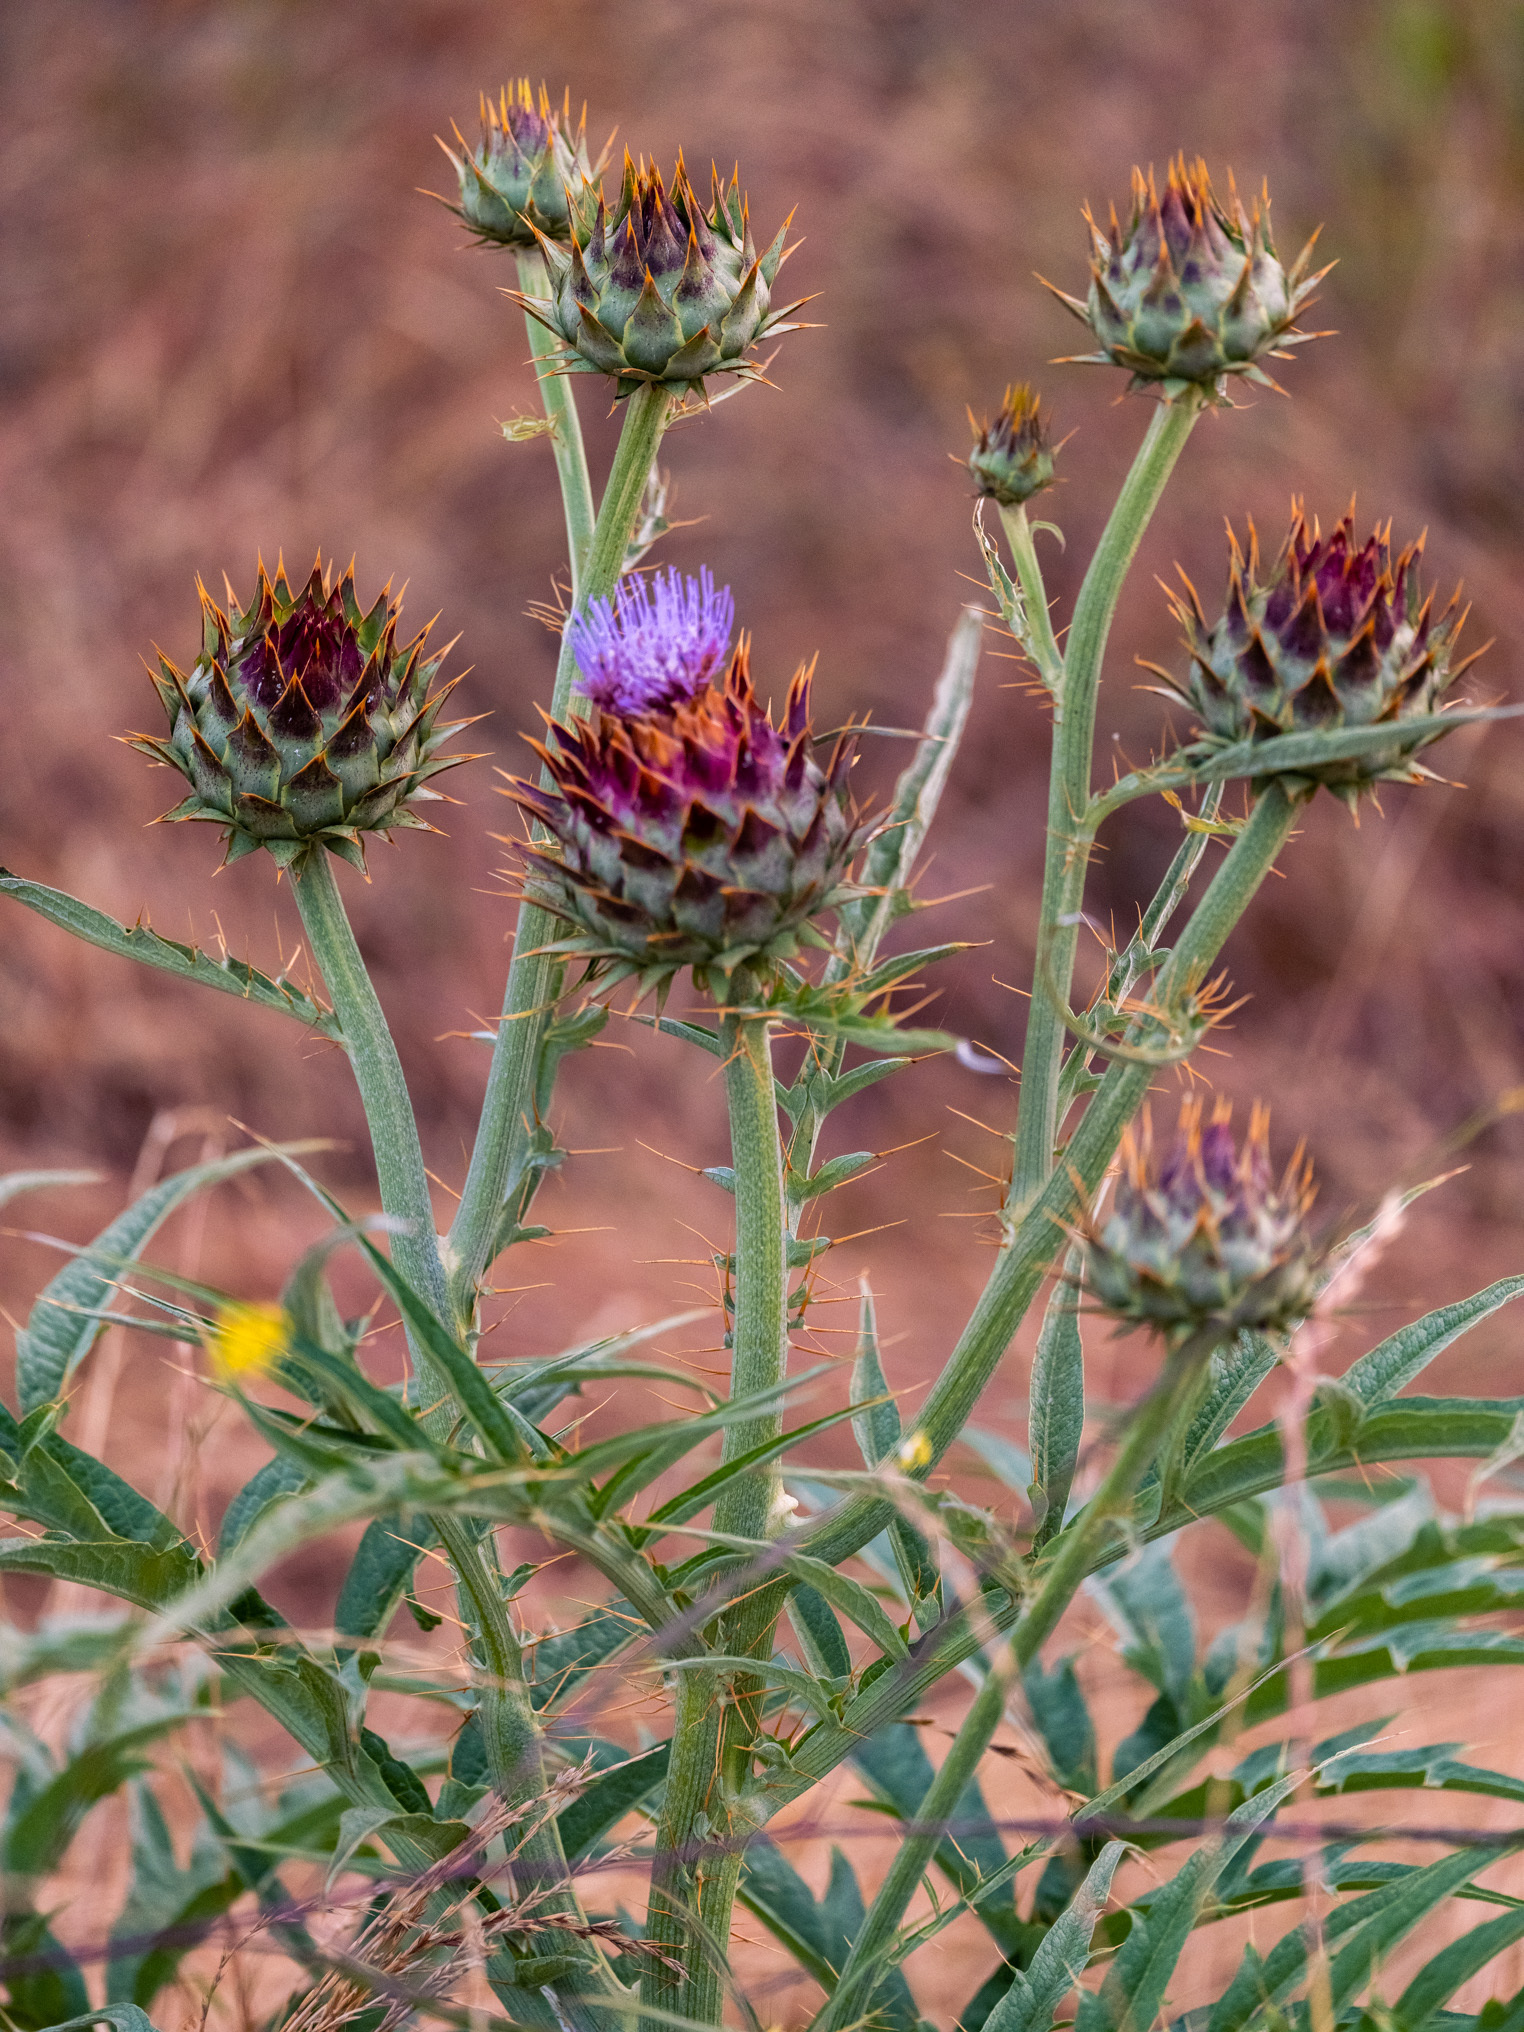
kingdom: Plantae
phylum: Tracheophyta
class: Magnoliopsida
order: Asterales
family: Asteraceae
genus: Cynara
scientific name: Cynara cardunculus
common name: Globe artichoke
